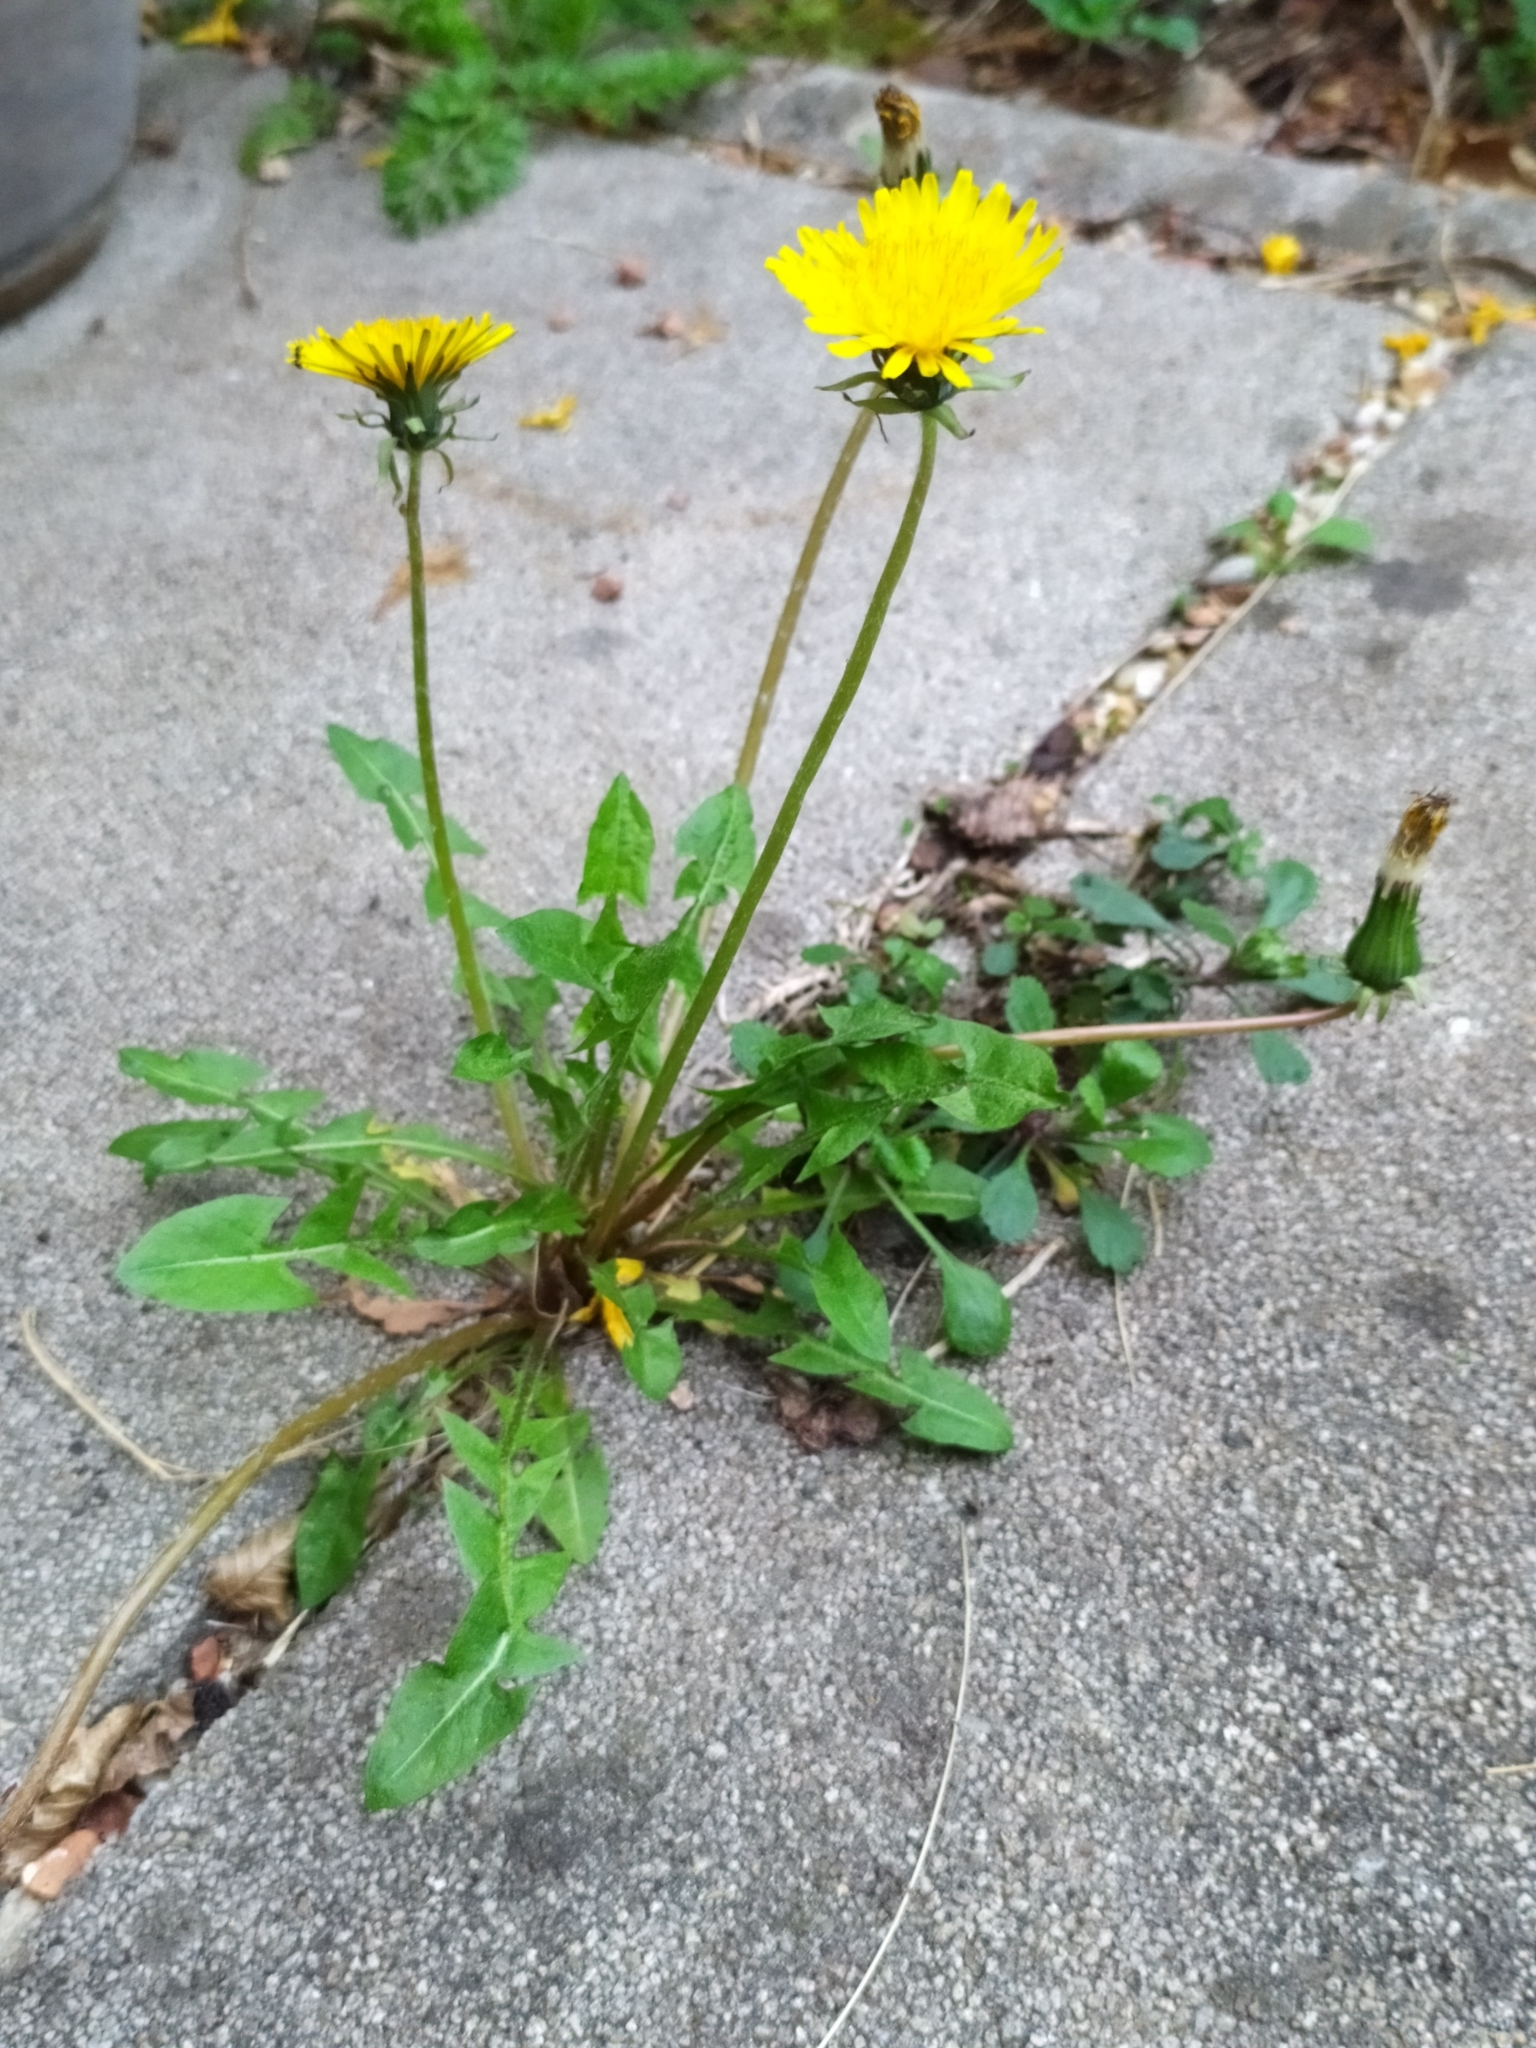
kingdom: Plantae
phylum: Tracheophyta
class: Magnoliopsida
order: Asterales
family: Asteraceae
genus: Taraxacum
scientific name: Taraxacum officinale
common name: Common dandelion
